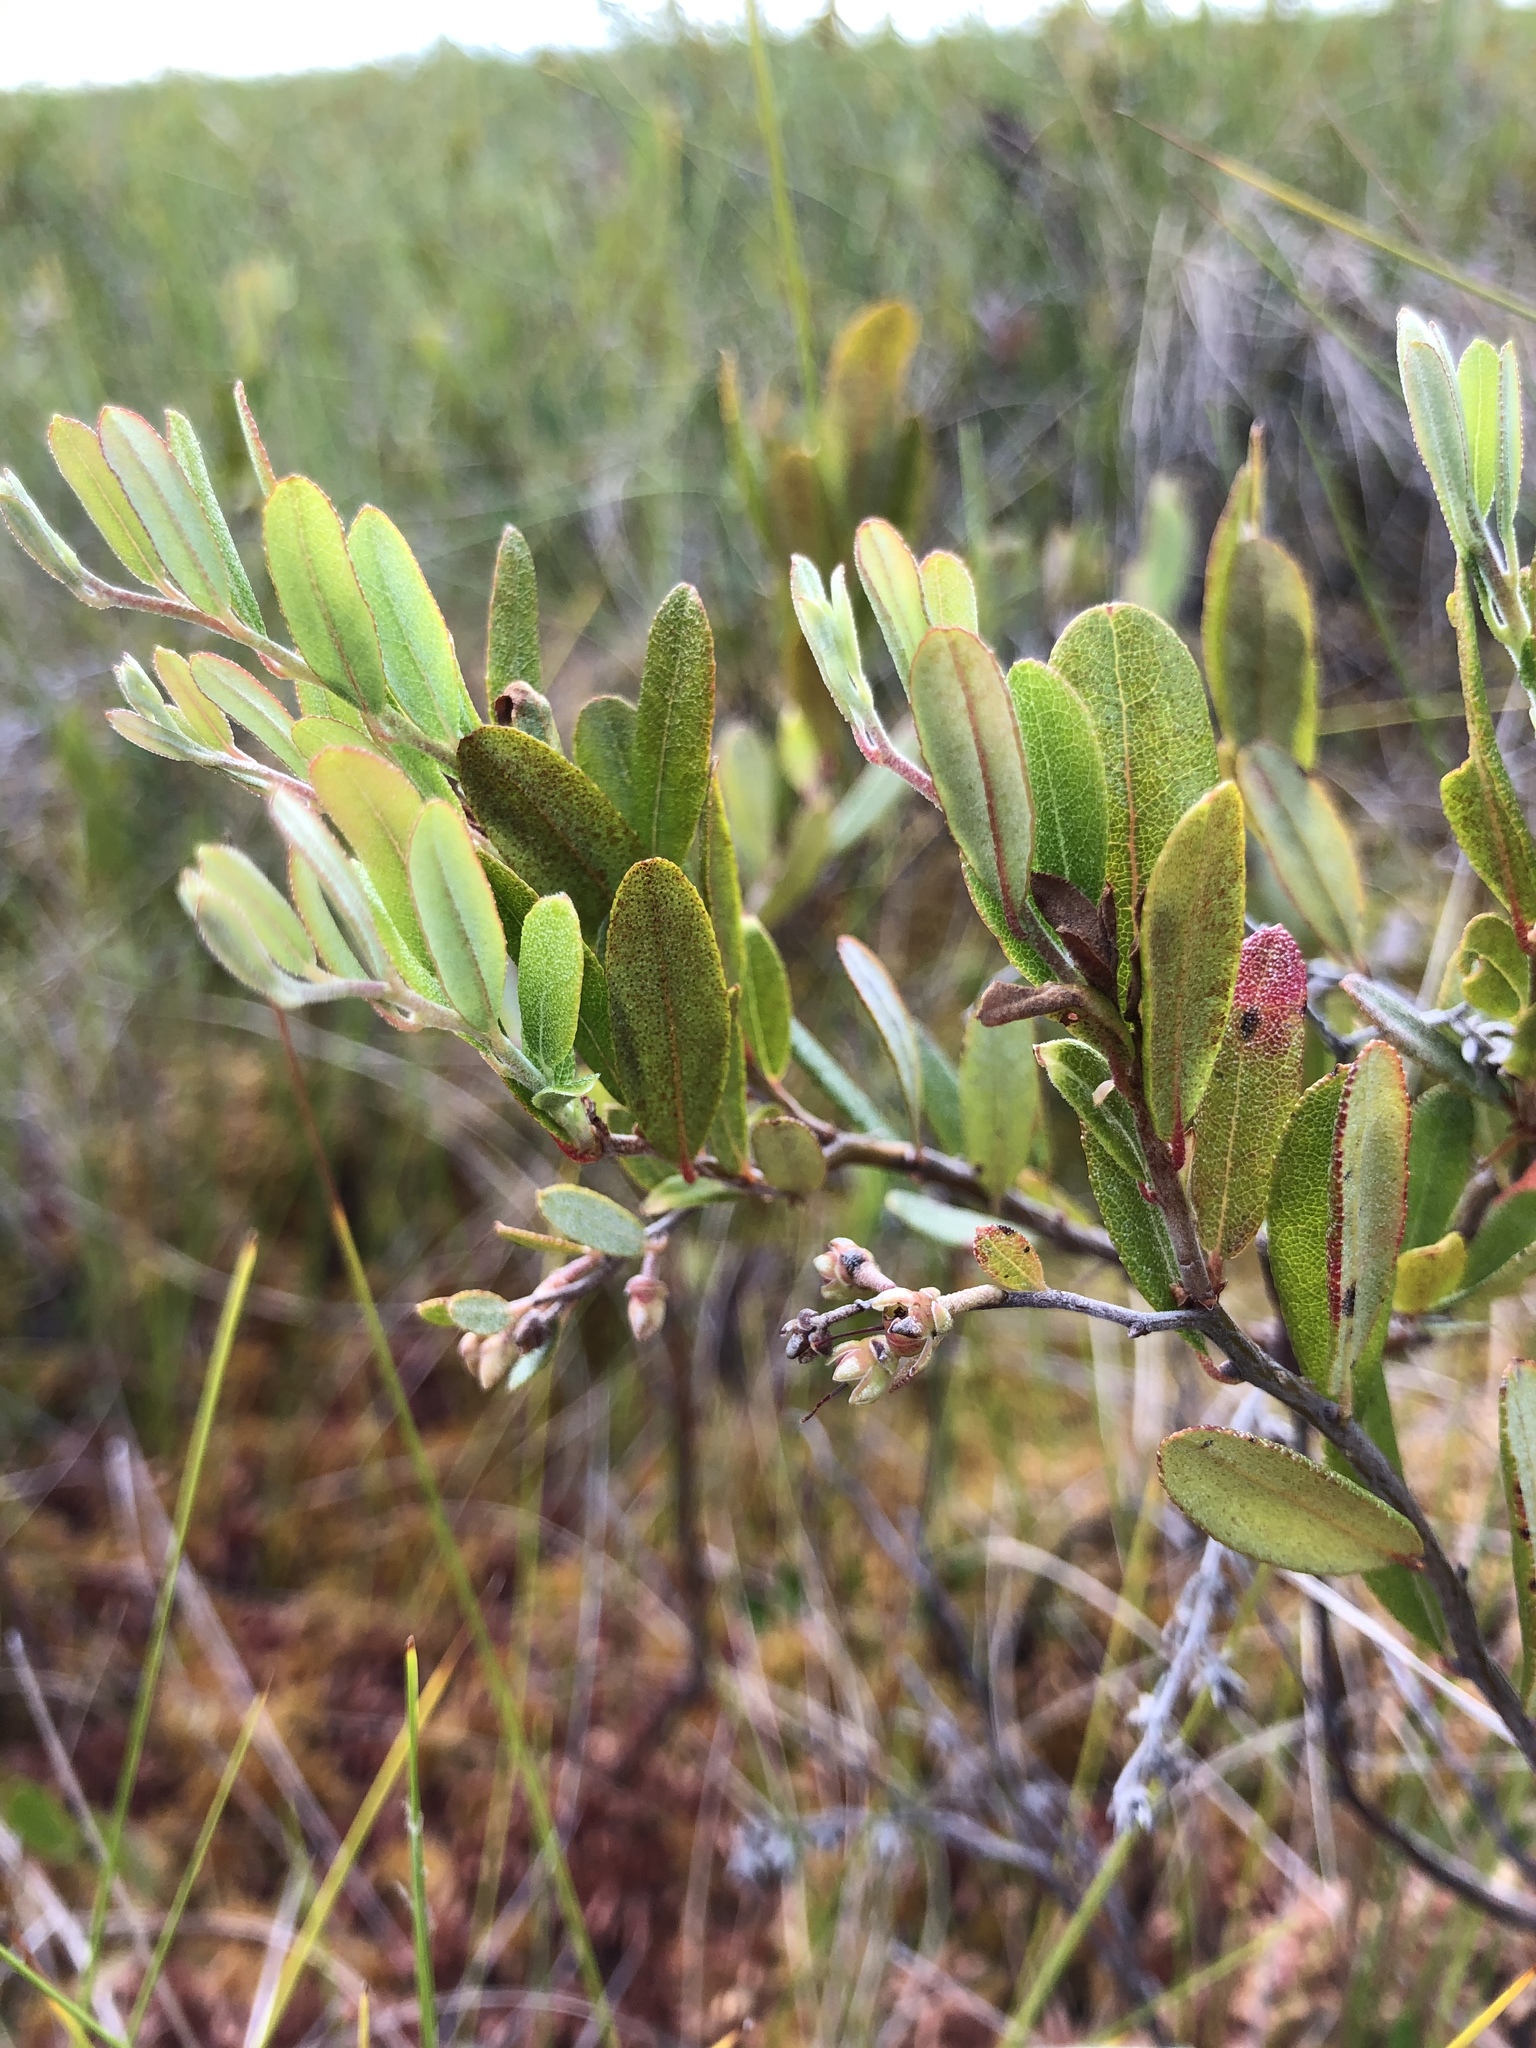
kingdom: Plantae
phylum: Tracheophyta
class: Magnoliopsida
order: Ericales
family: Ericaceae
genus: Chamaedaphne
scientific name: Chamaedaphne calyculata
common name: Leatherleaf
